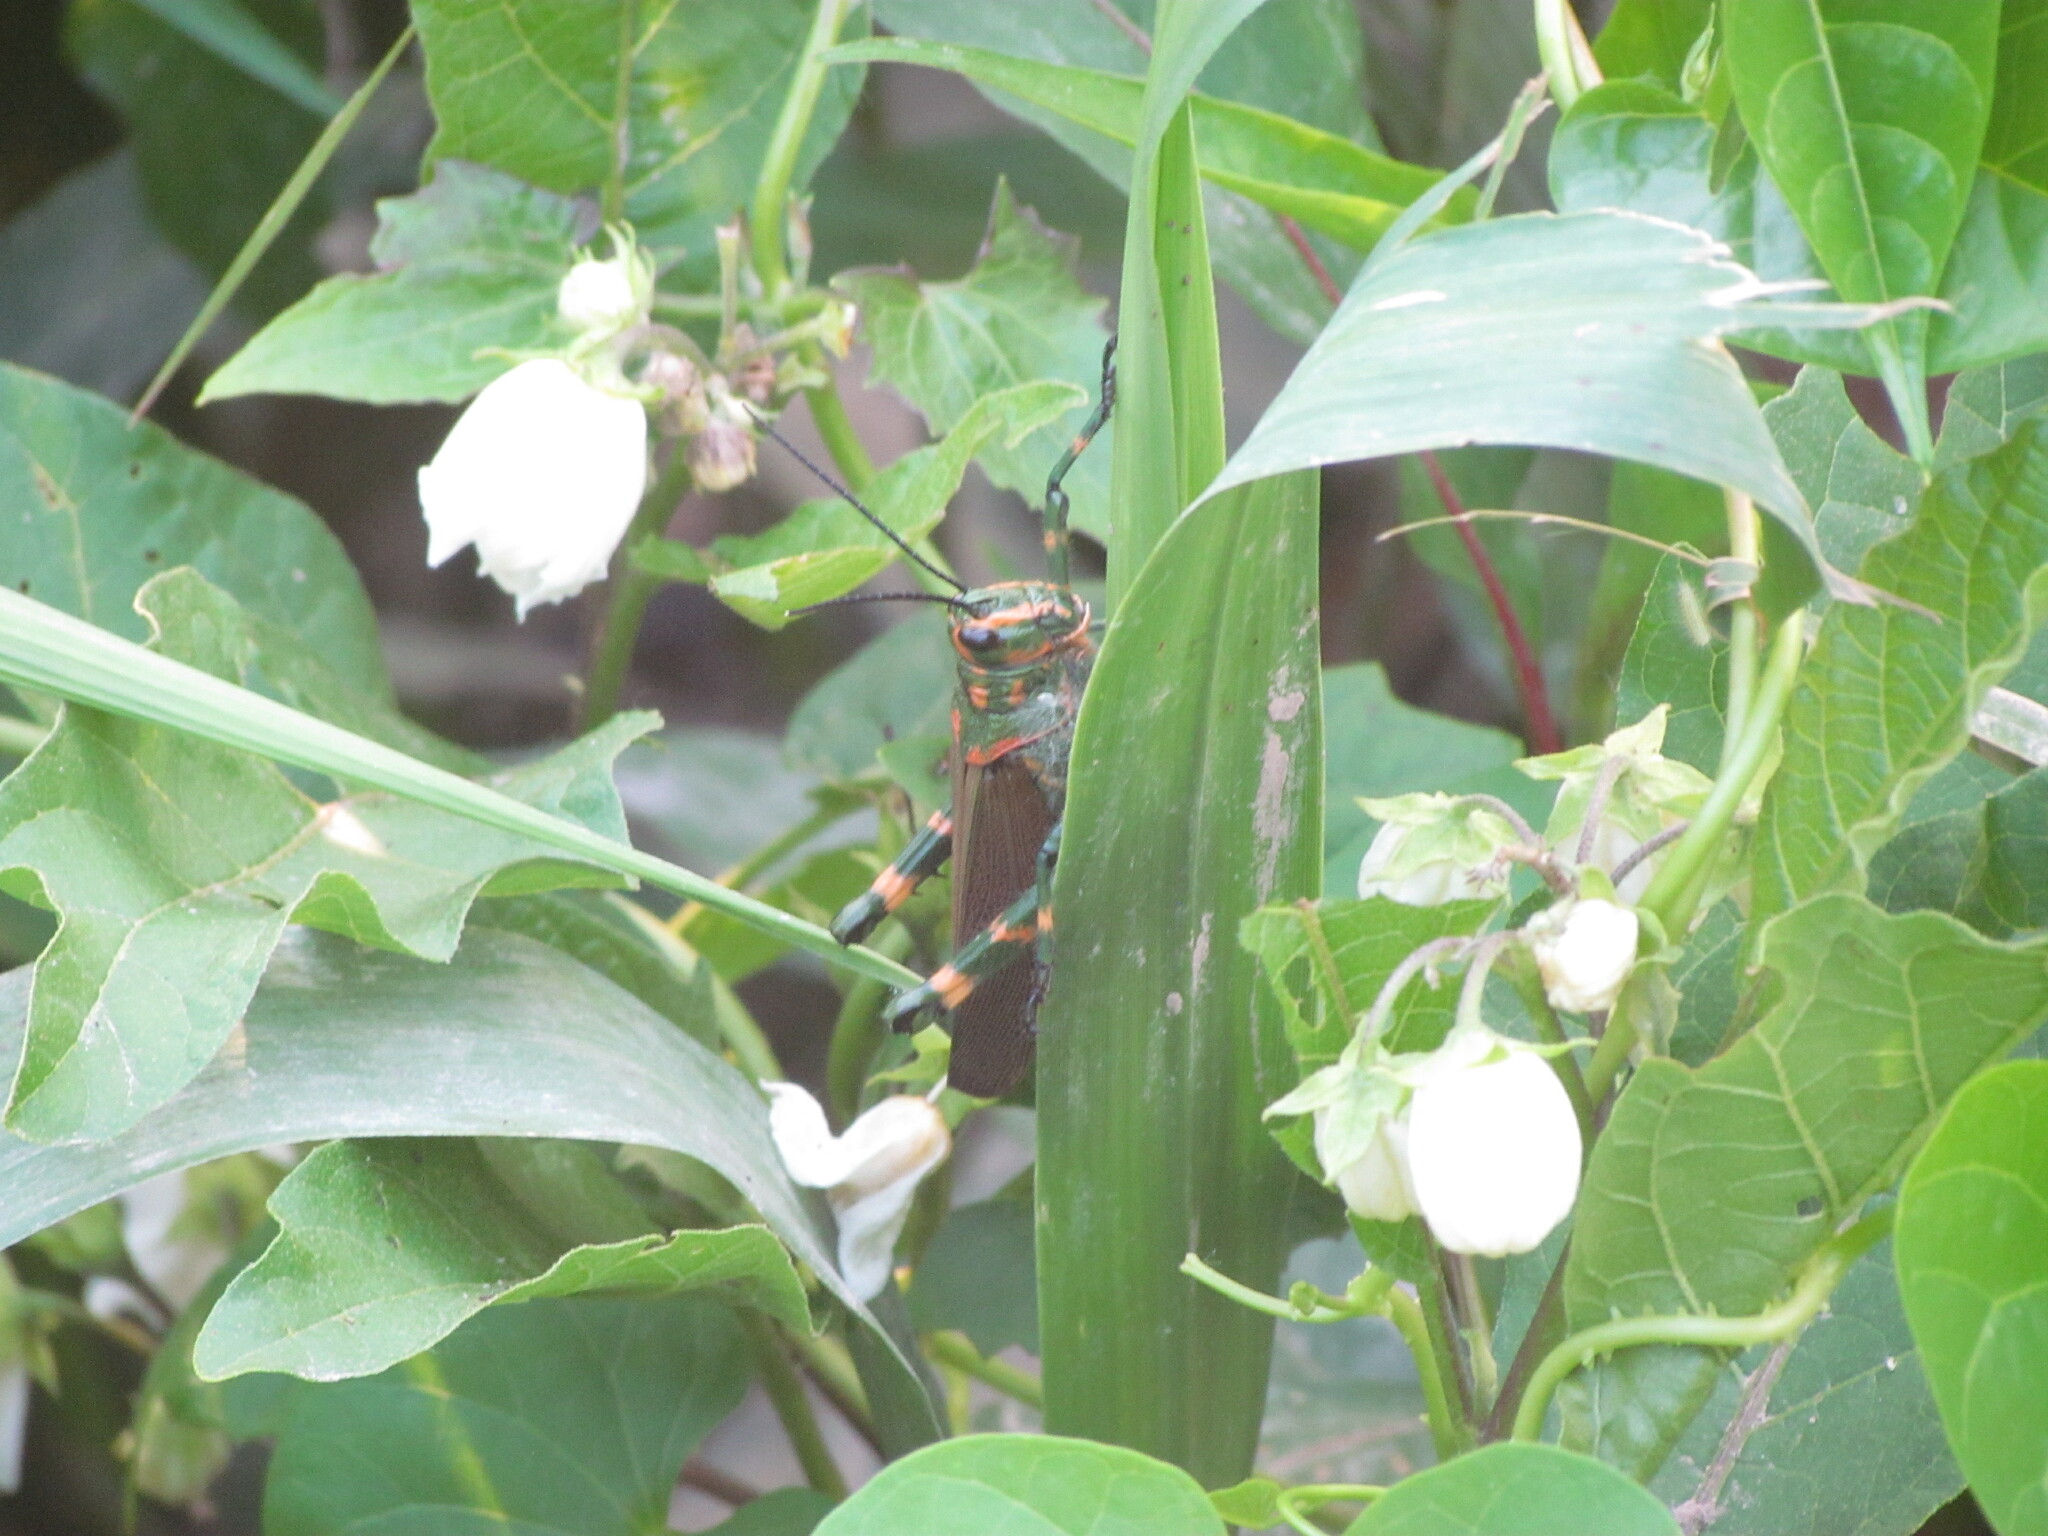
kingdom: Animalia
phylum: Arthropoda
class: Insecta
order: Orthoptera
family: Romaleidae
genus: Chromacris
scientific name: Chromacris speciosa
